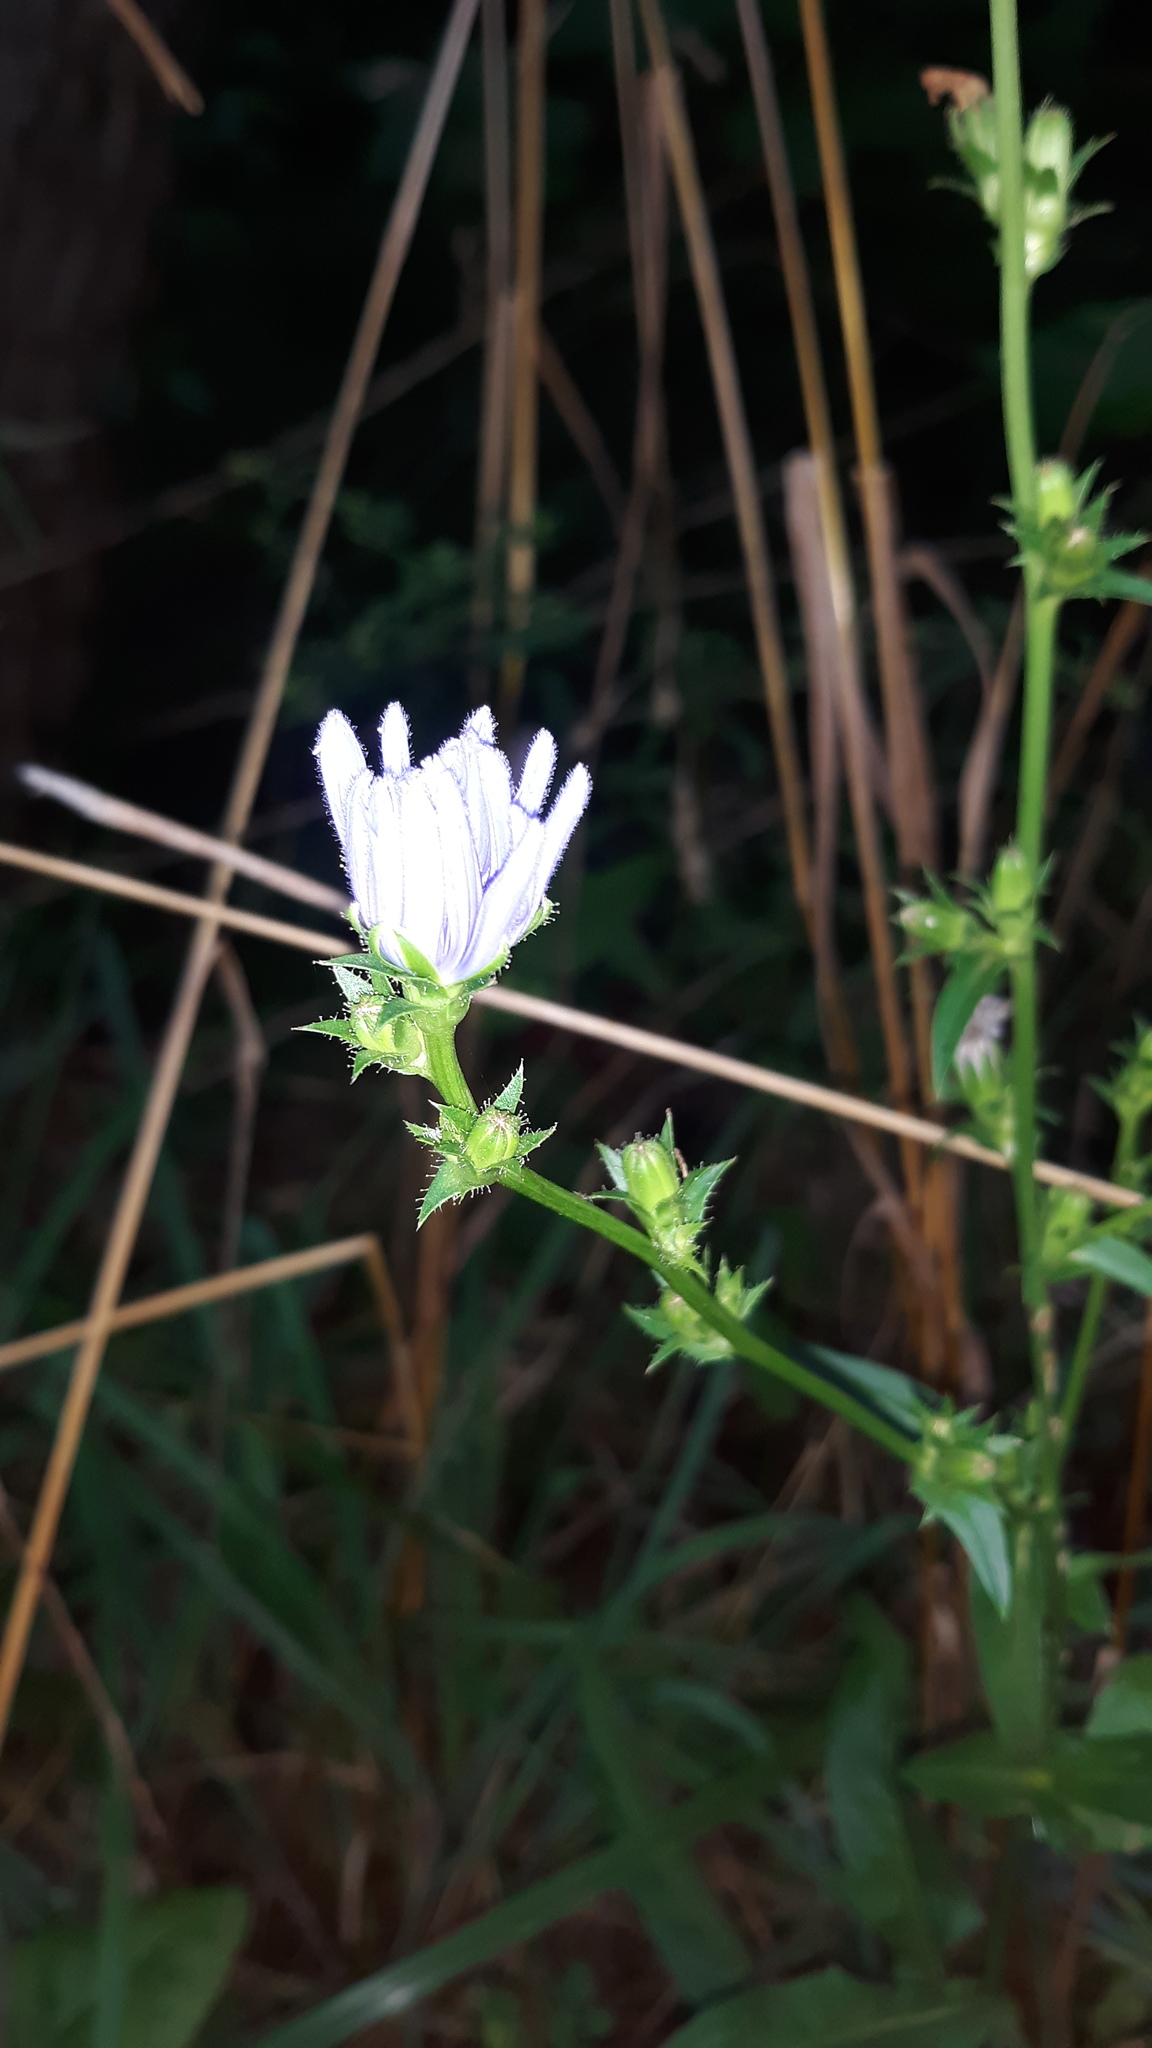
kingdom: Plantae
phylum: Tracheophyta
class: Magnoliopsida
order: Asterales
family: Asteraceae
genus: Cichorium
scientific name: Cichorium intybus
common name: Chicory
